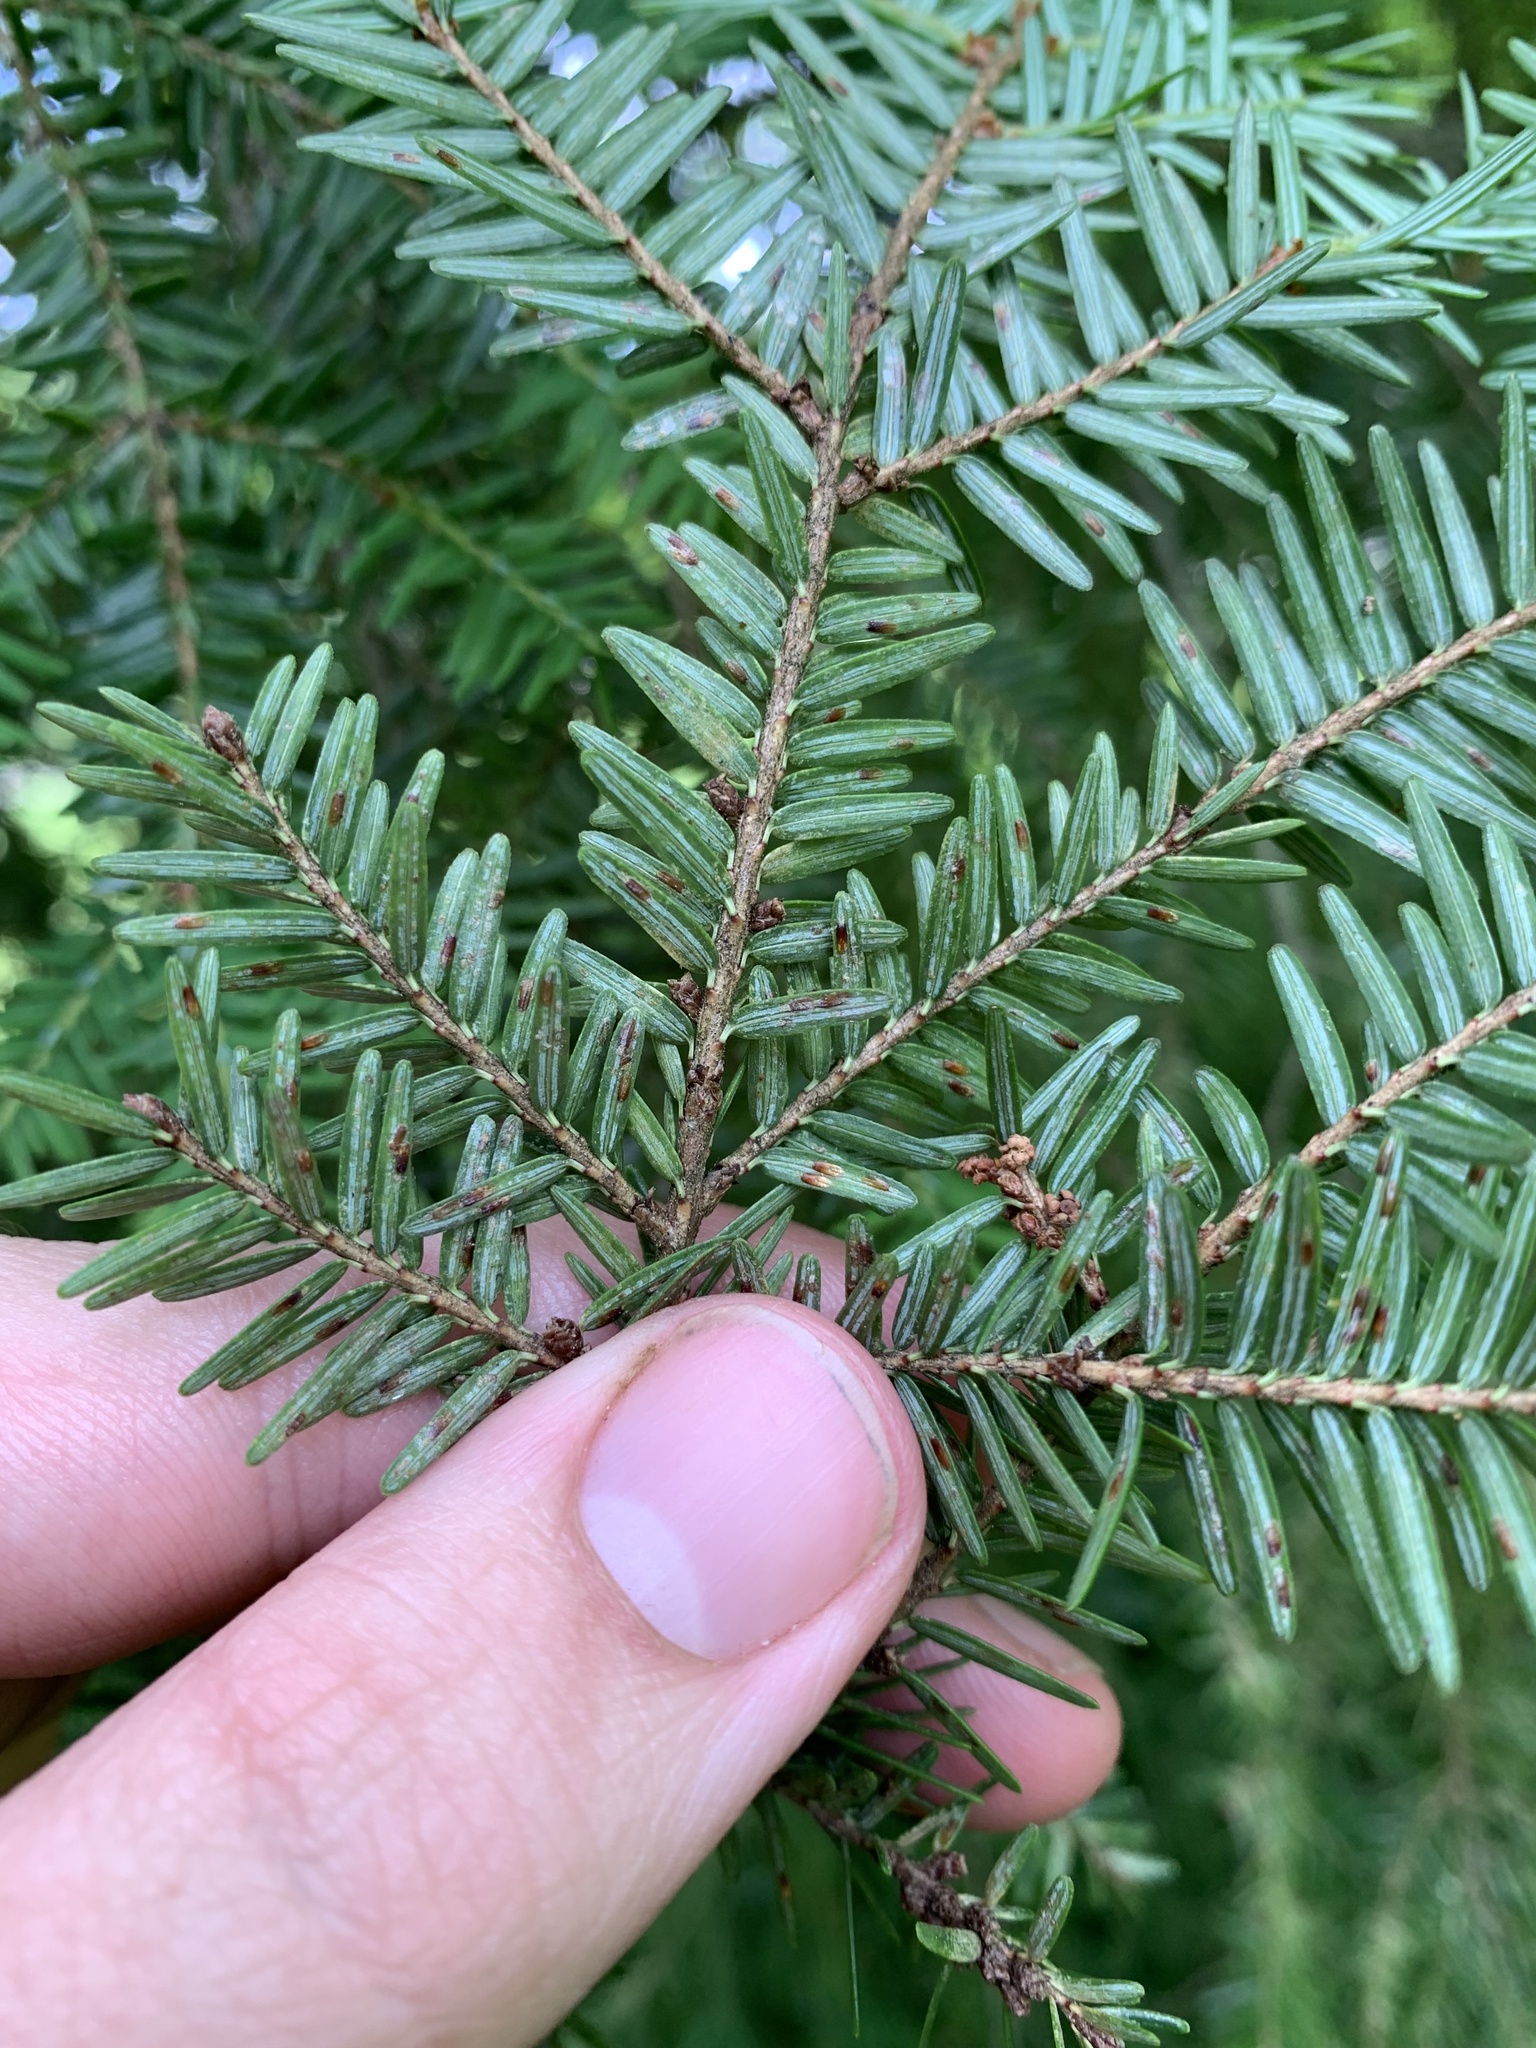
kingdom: Animalia
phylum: Arthropoda
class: Insecta
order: Hemiptera
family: Diaspididae
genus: Fiorinia
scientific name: Fiorinia externa
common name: Elongate hemlock scale
